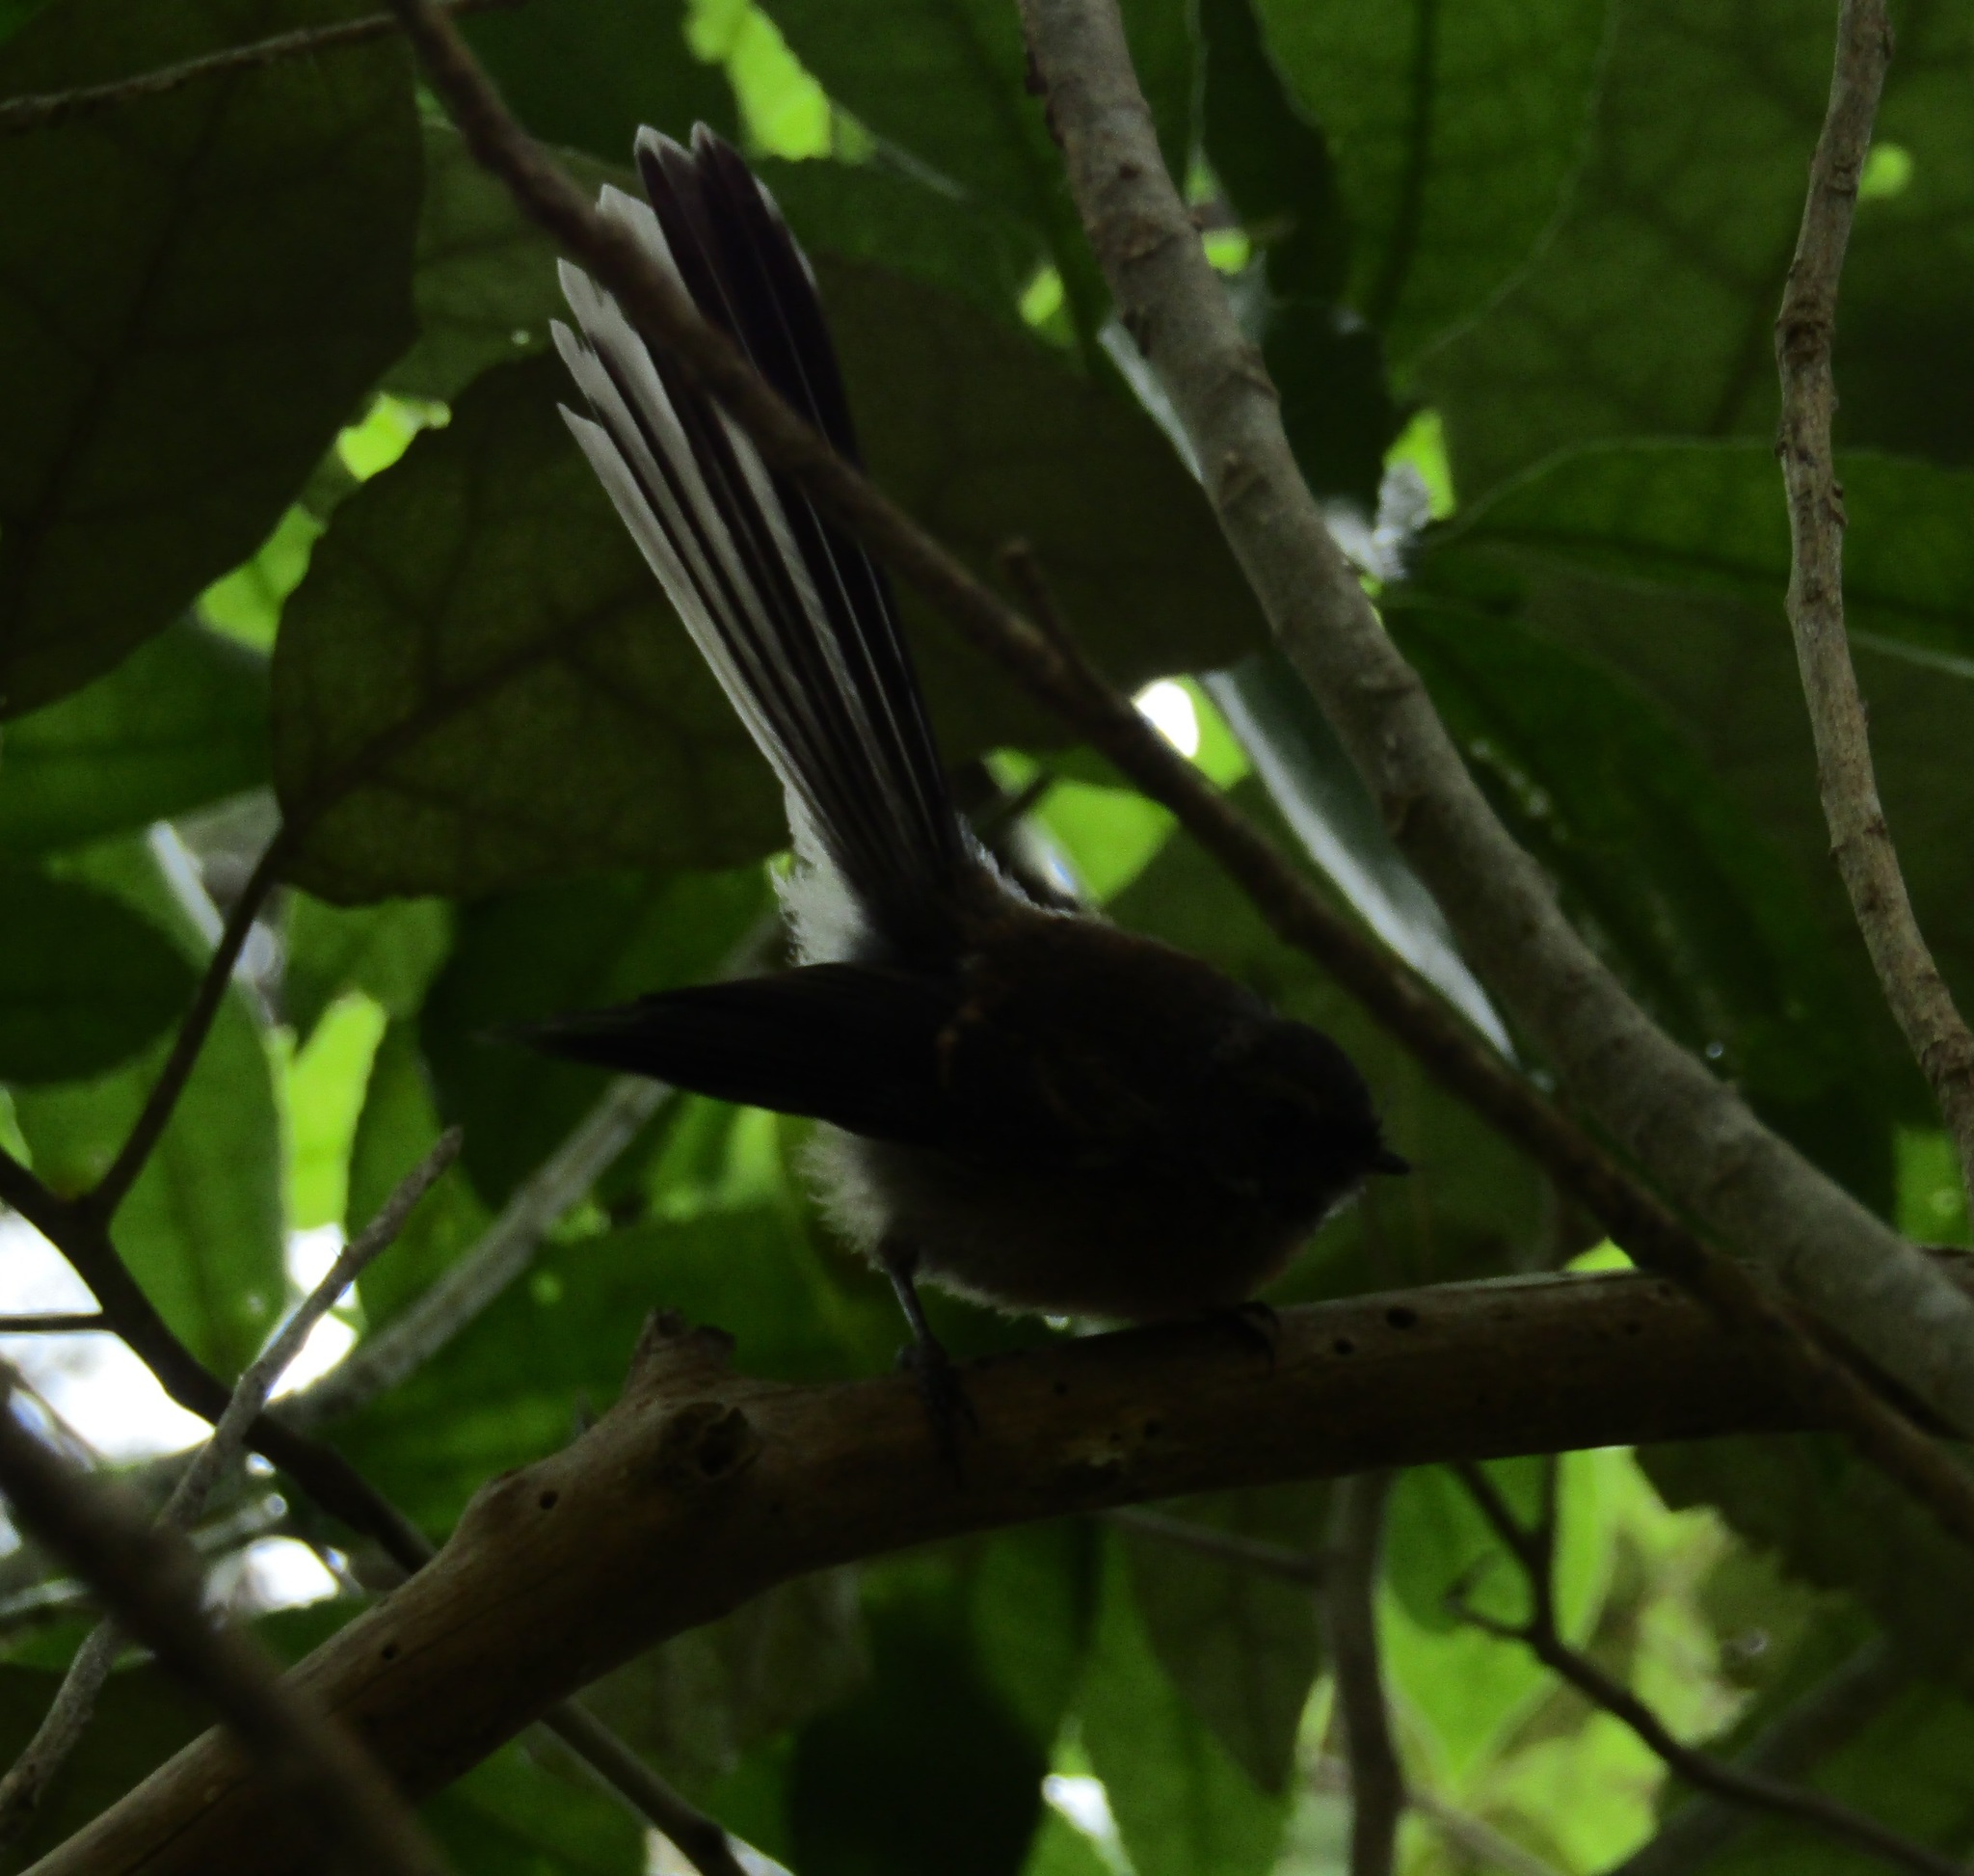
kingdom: Animalia
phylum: Chordata
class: Aves
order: Passeriformes
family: Rhipiduridae
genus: Rhipidura
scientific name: Rhipidura fuliginosa
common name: New zealand fantail
